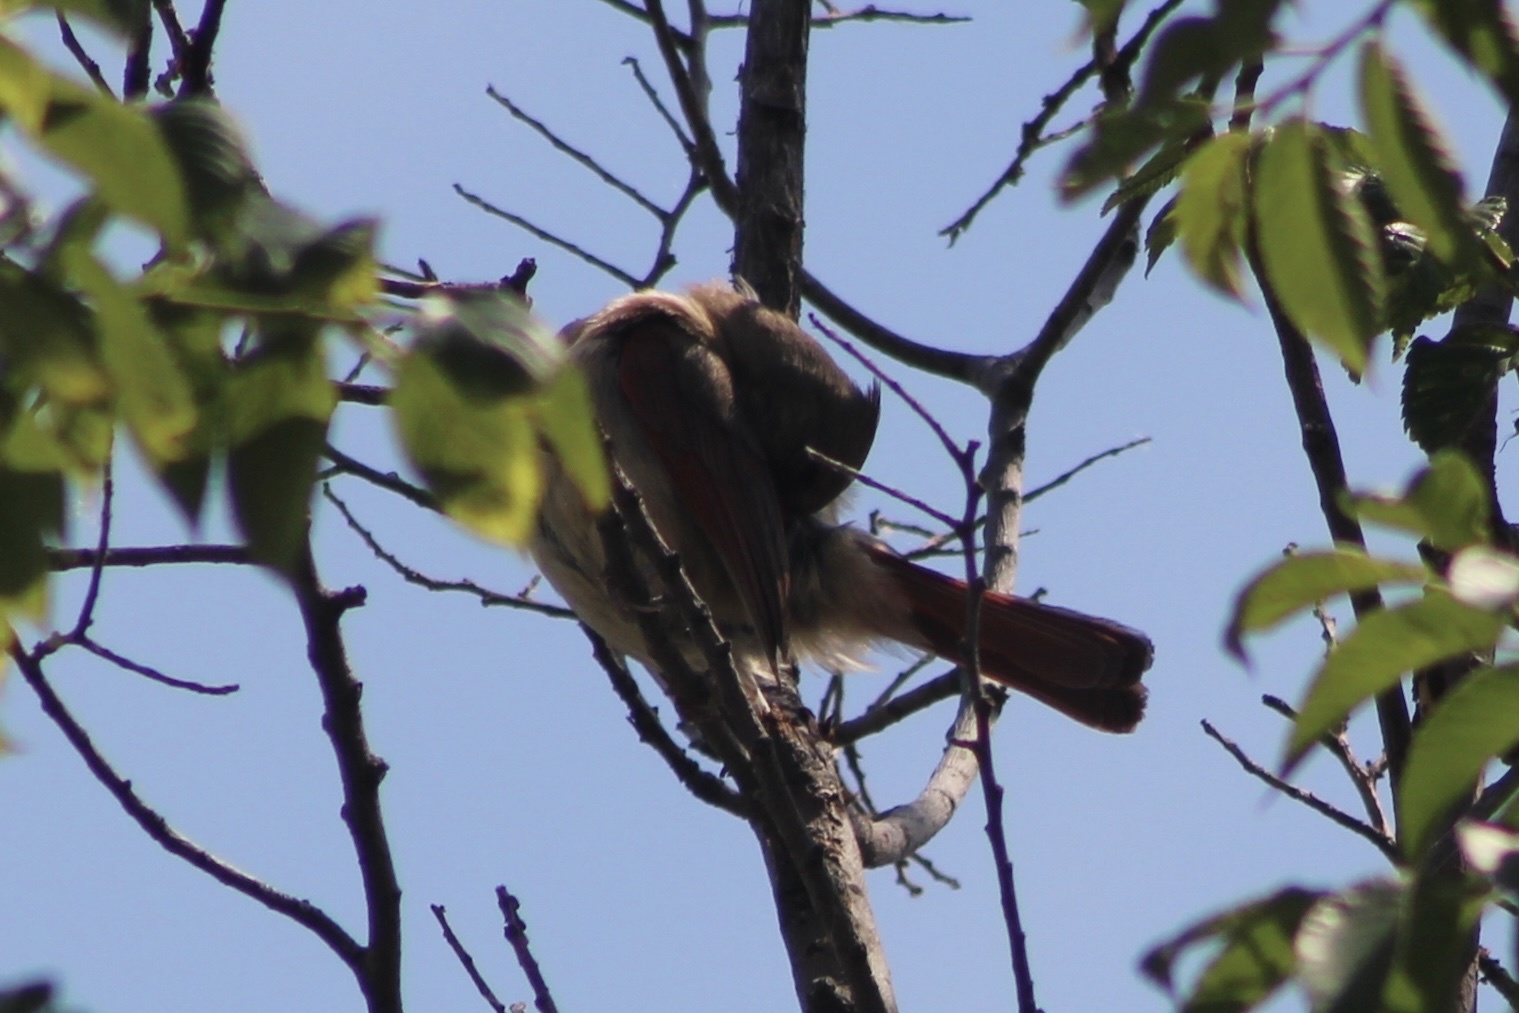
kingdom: Animalia
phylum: Chordata
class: Aves
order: Passeriformes
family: Cardinalidae
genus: Cardinalis
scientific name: Cardinalis cardinalis
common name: Northern cardinal
